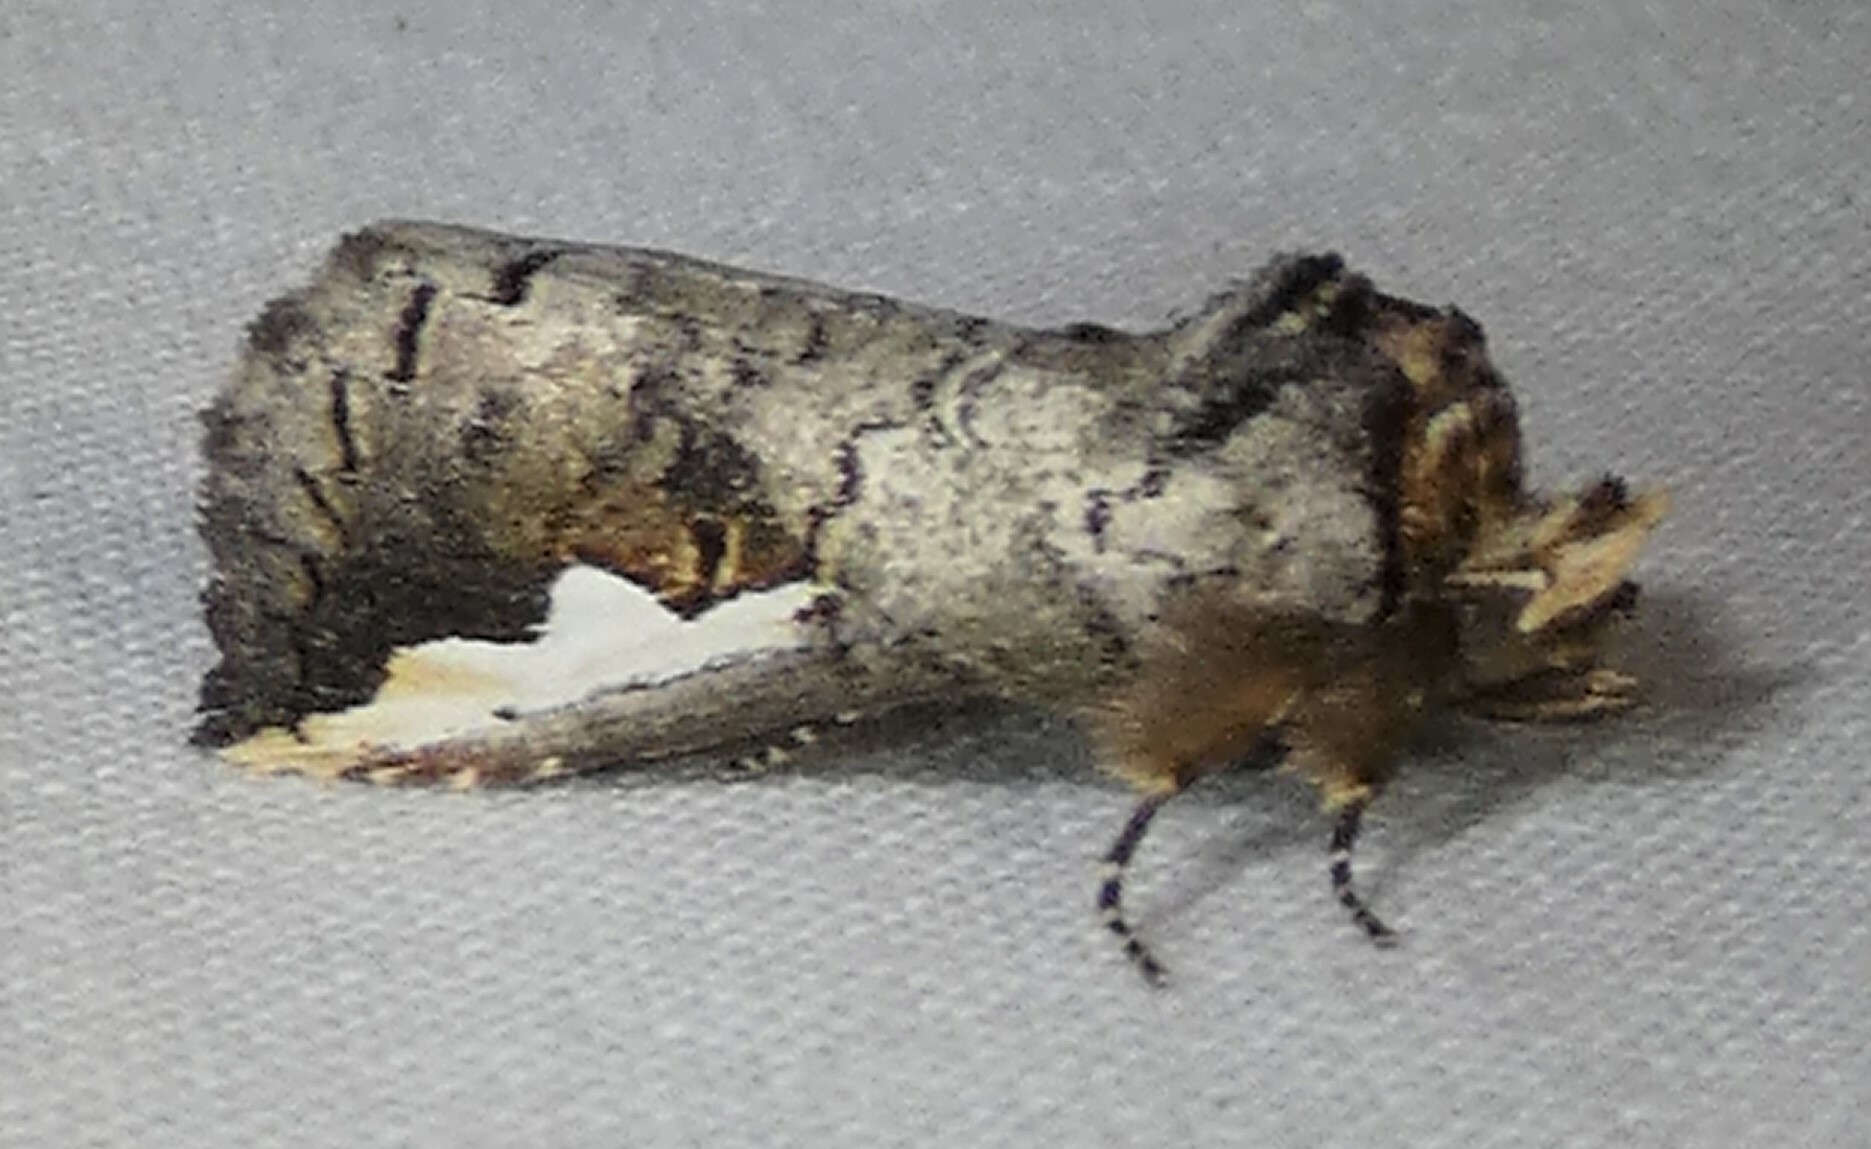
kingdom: Animalia
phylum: Arthropoda
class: Insecta
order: Lepidoptera
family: Notodontidae
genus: Symmerista
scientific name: Symmerista albifrons
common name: White-headed prominent
